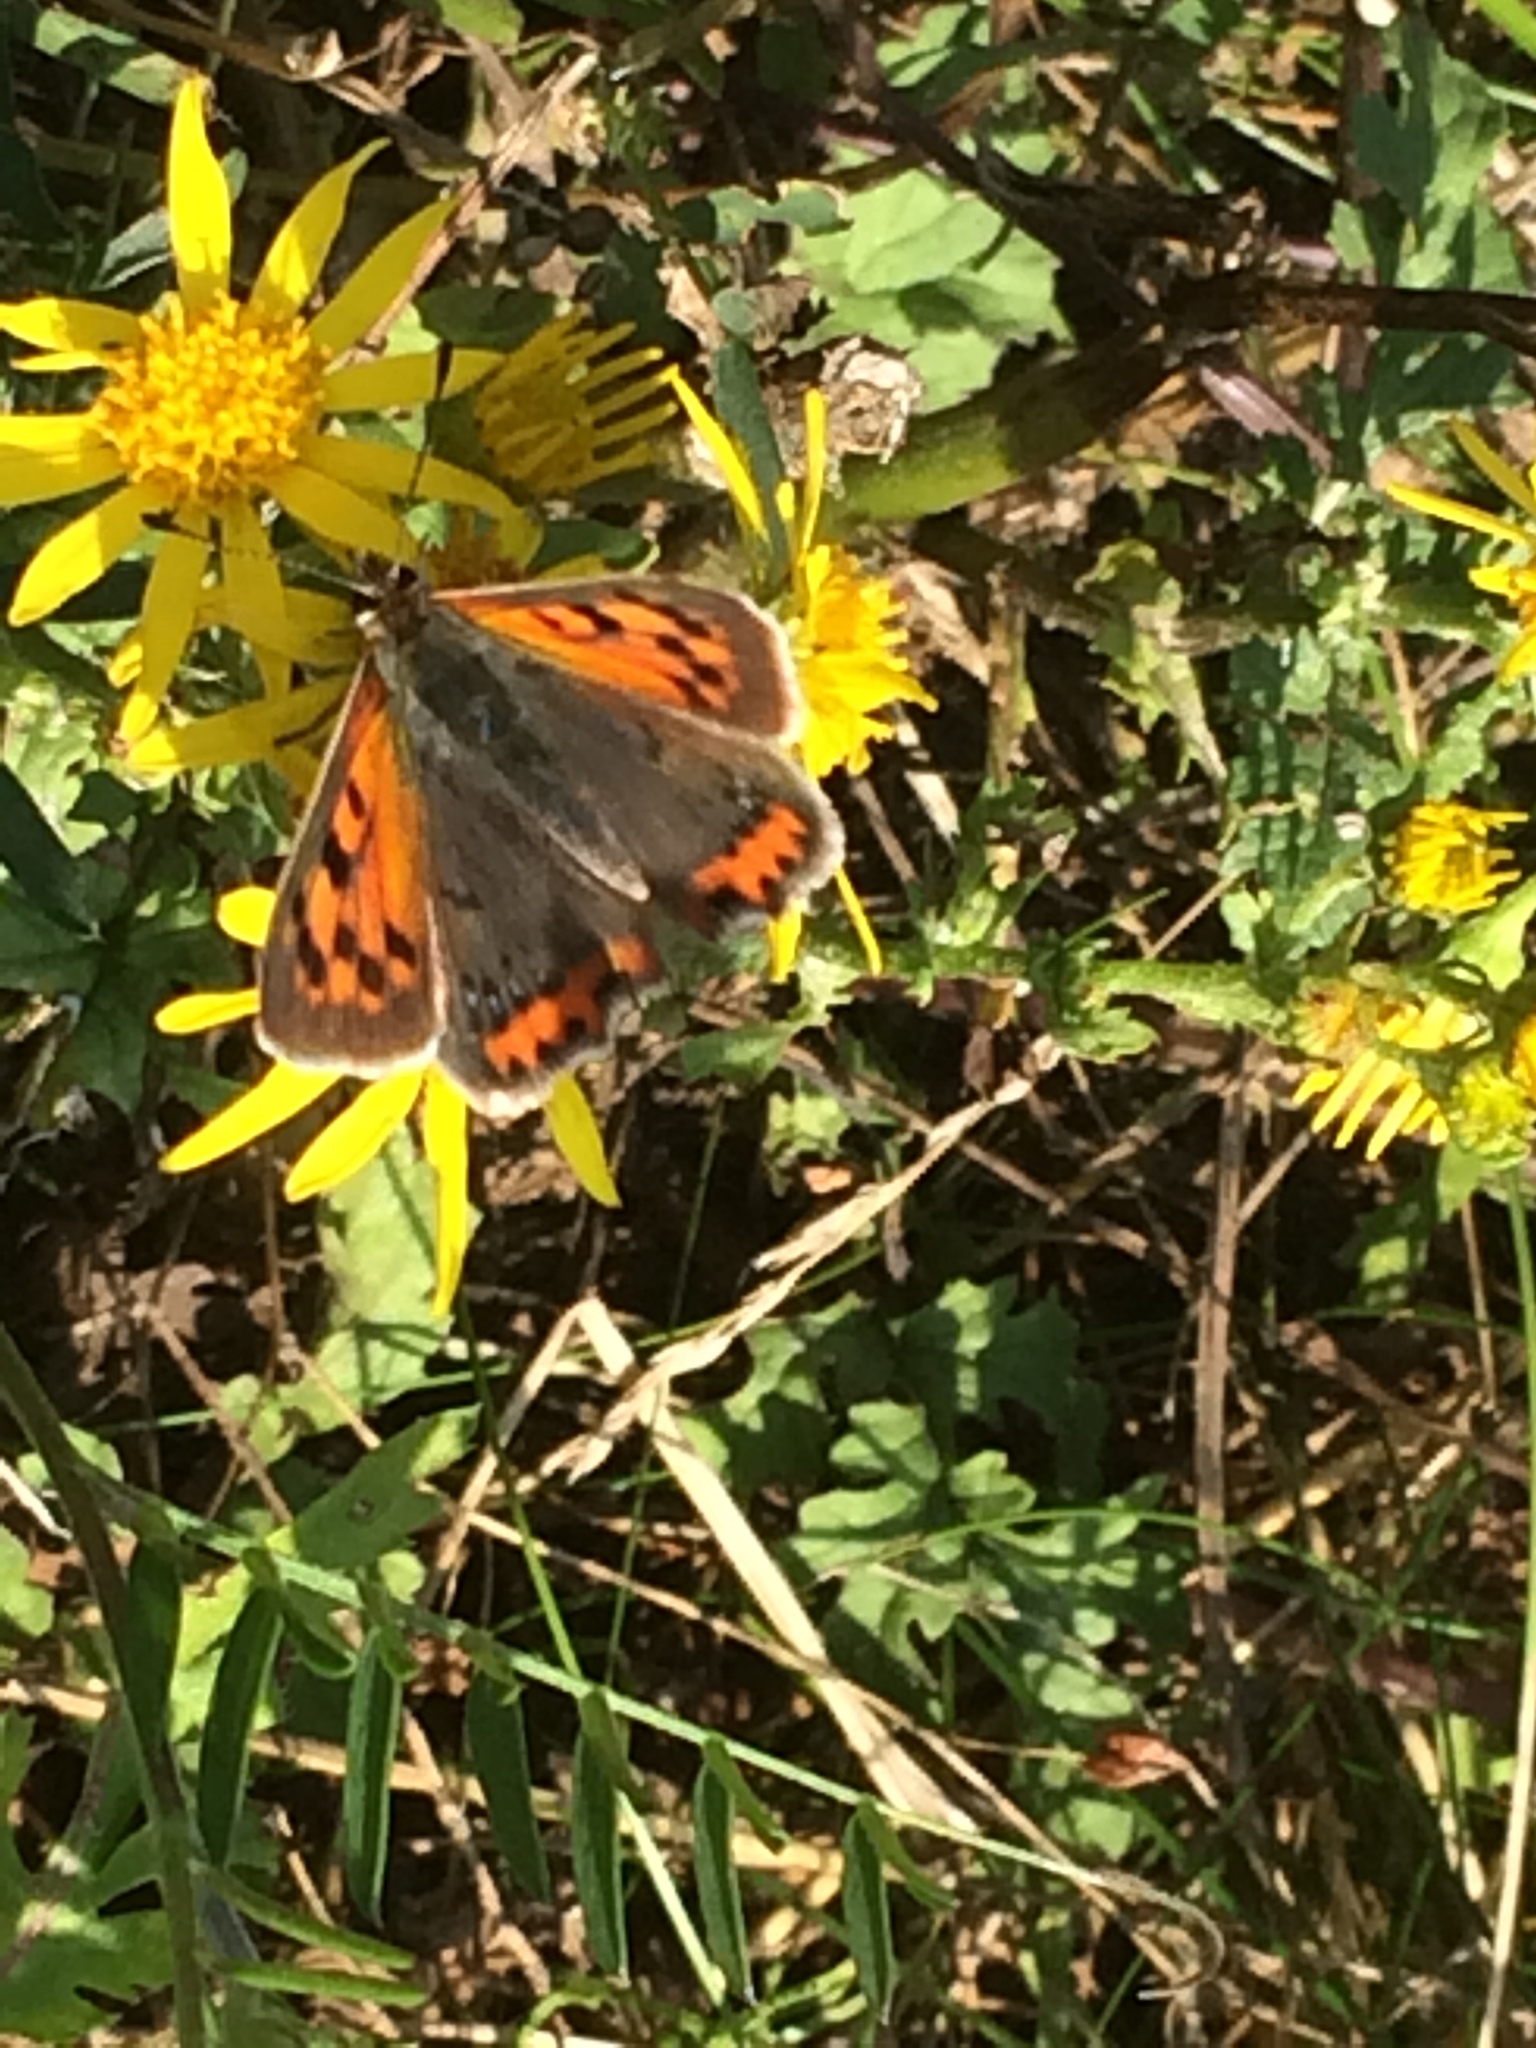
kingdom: Animalia
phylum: Arthropoda
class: Insecta
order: Lepidoptera
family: Lycaenidae
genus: Lycaena
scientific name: Lycaena phlaeas
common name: Small copper
